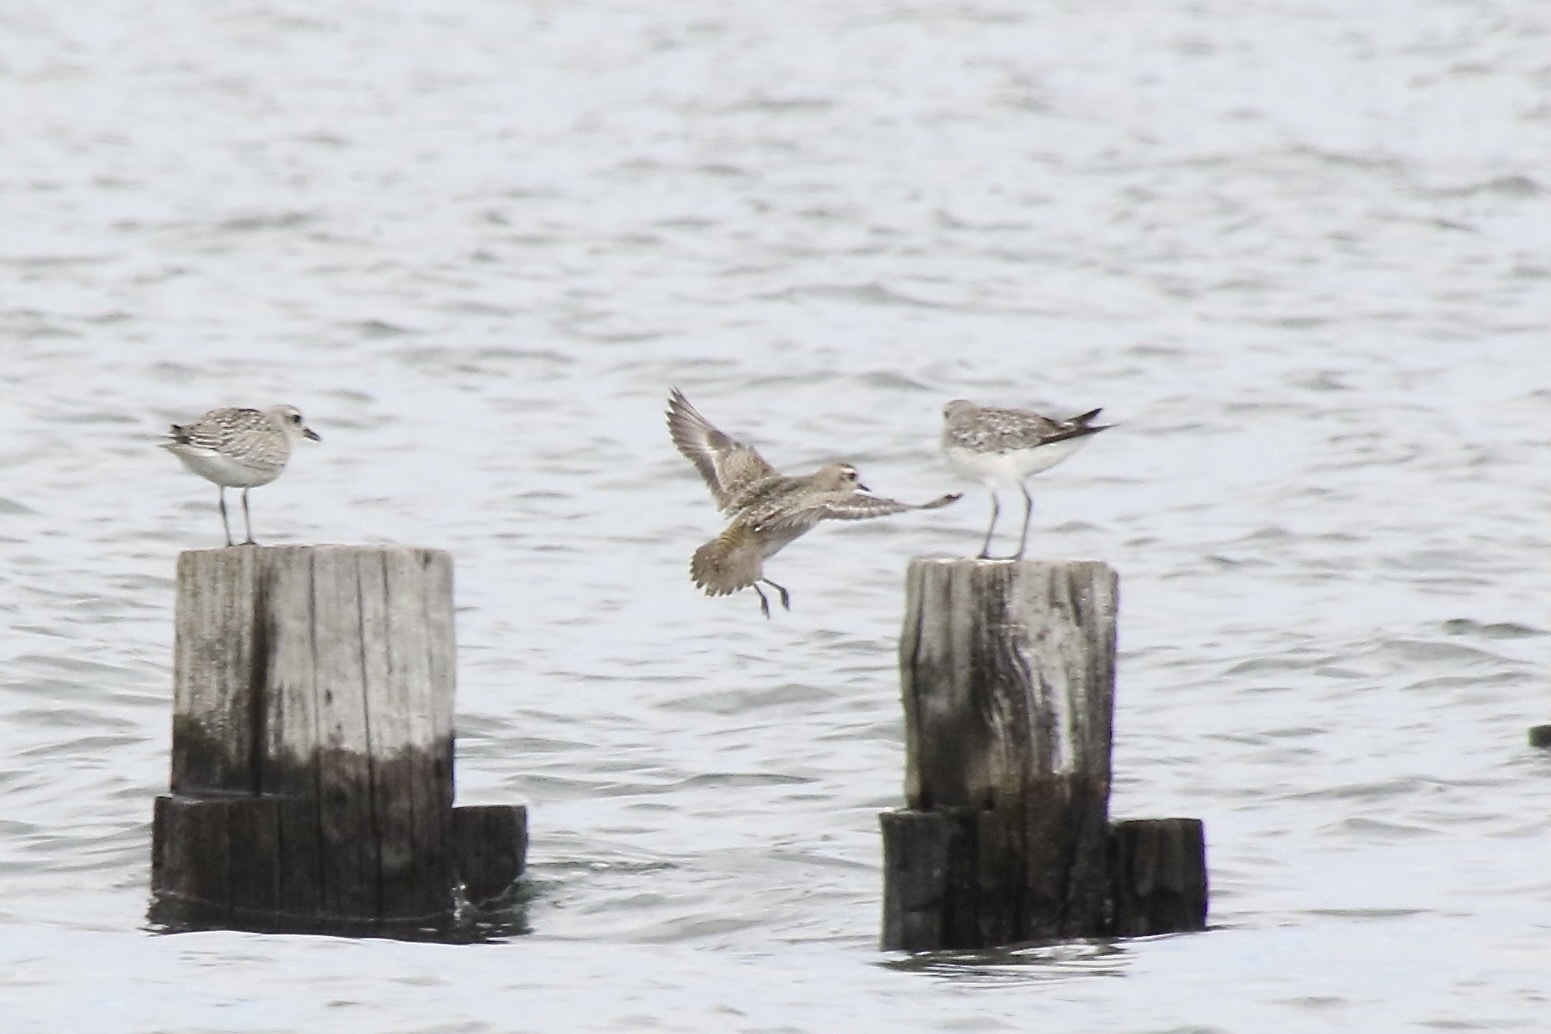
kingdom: Animalia
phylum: Chordata
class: Aves
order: Charadriiformes
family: Charadriidae
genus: Pluvialis
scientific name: Pluvialis dominica
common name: American golden plover
